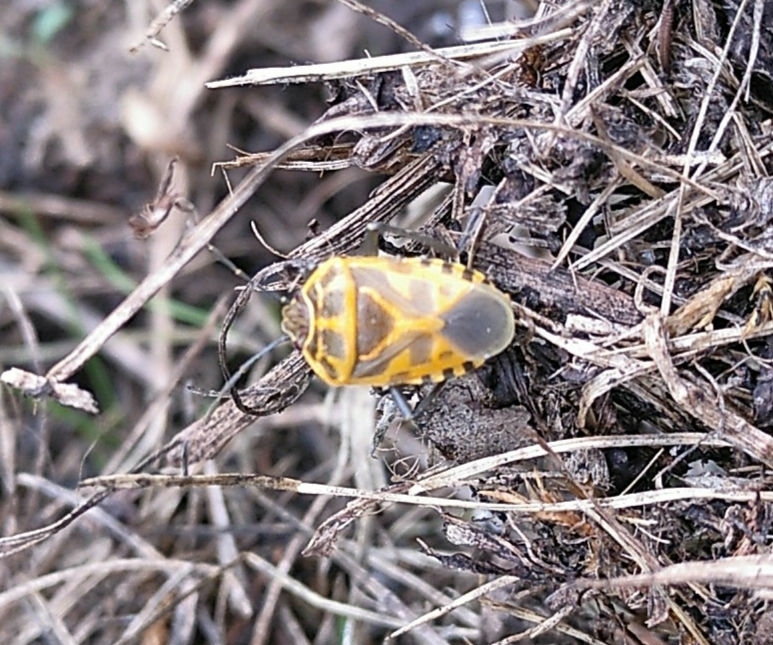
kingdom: Animalia
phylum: Arthropoda
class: Insecta
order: Hemiptera
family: Pentatomidae
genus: Eurydema
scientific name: Eurydema ventralis
